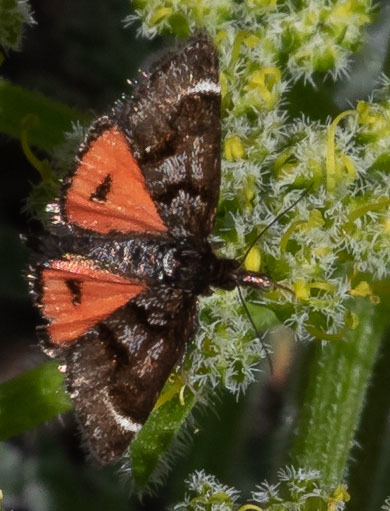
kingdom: Animalia
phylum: Arthropoda
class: Insecta
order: Lepidoptera
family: Crambidae
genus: Pyrausta
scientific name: Pyrausta dapalis
